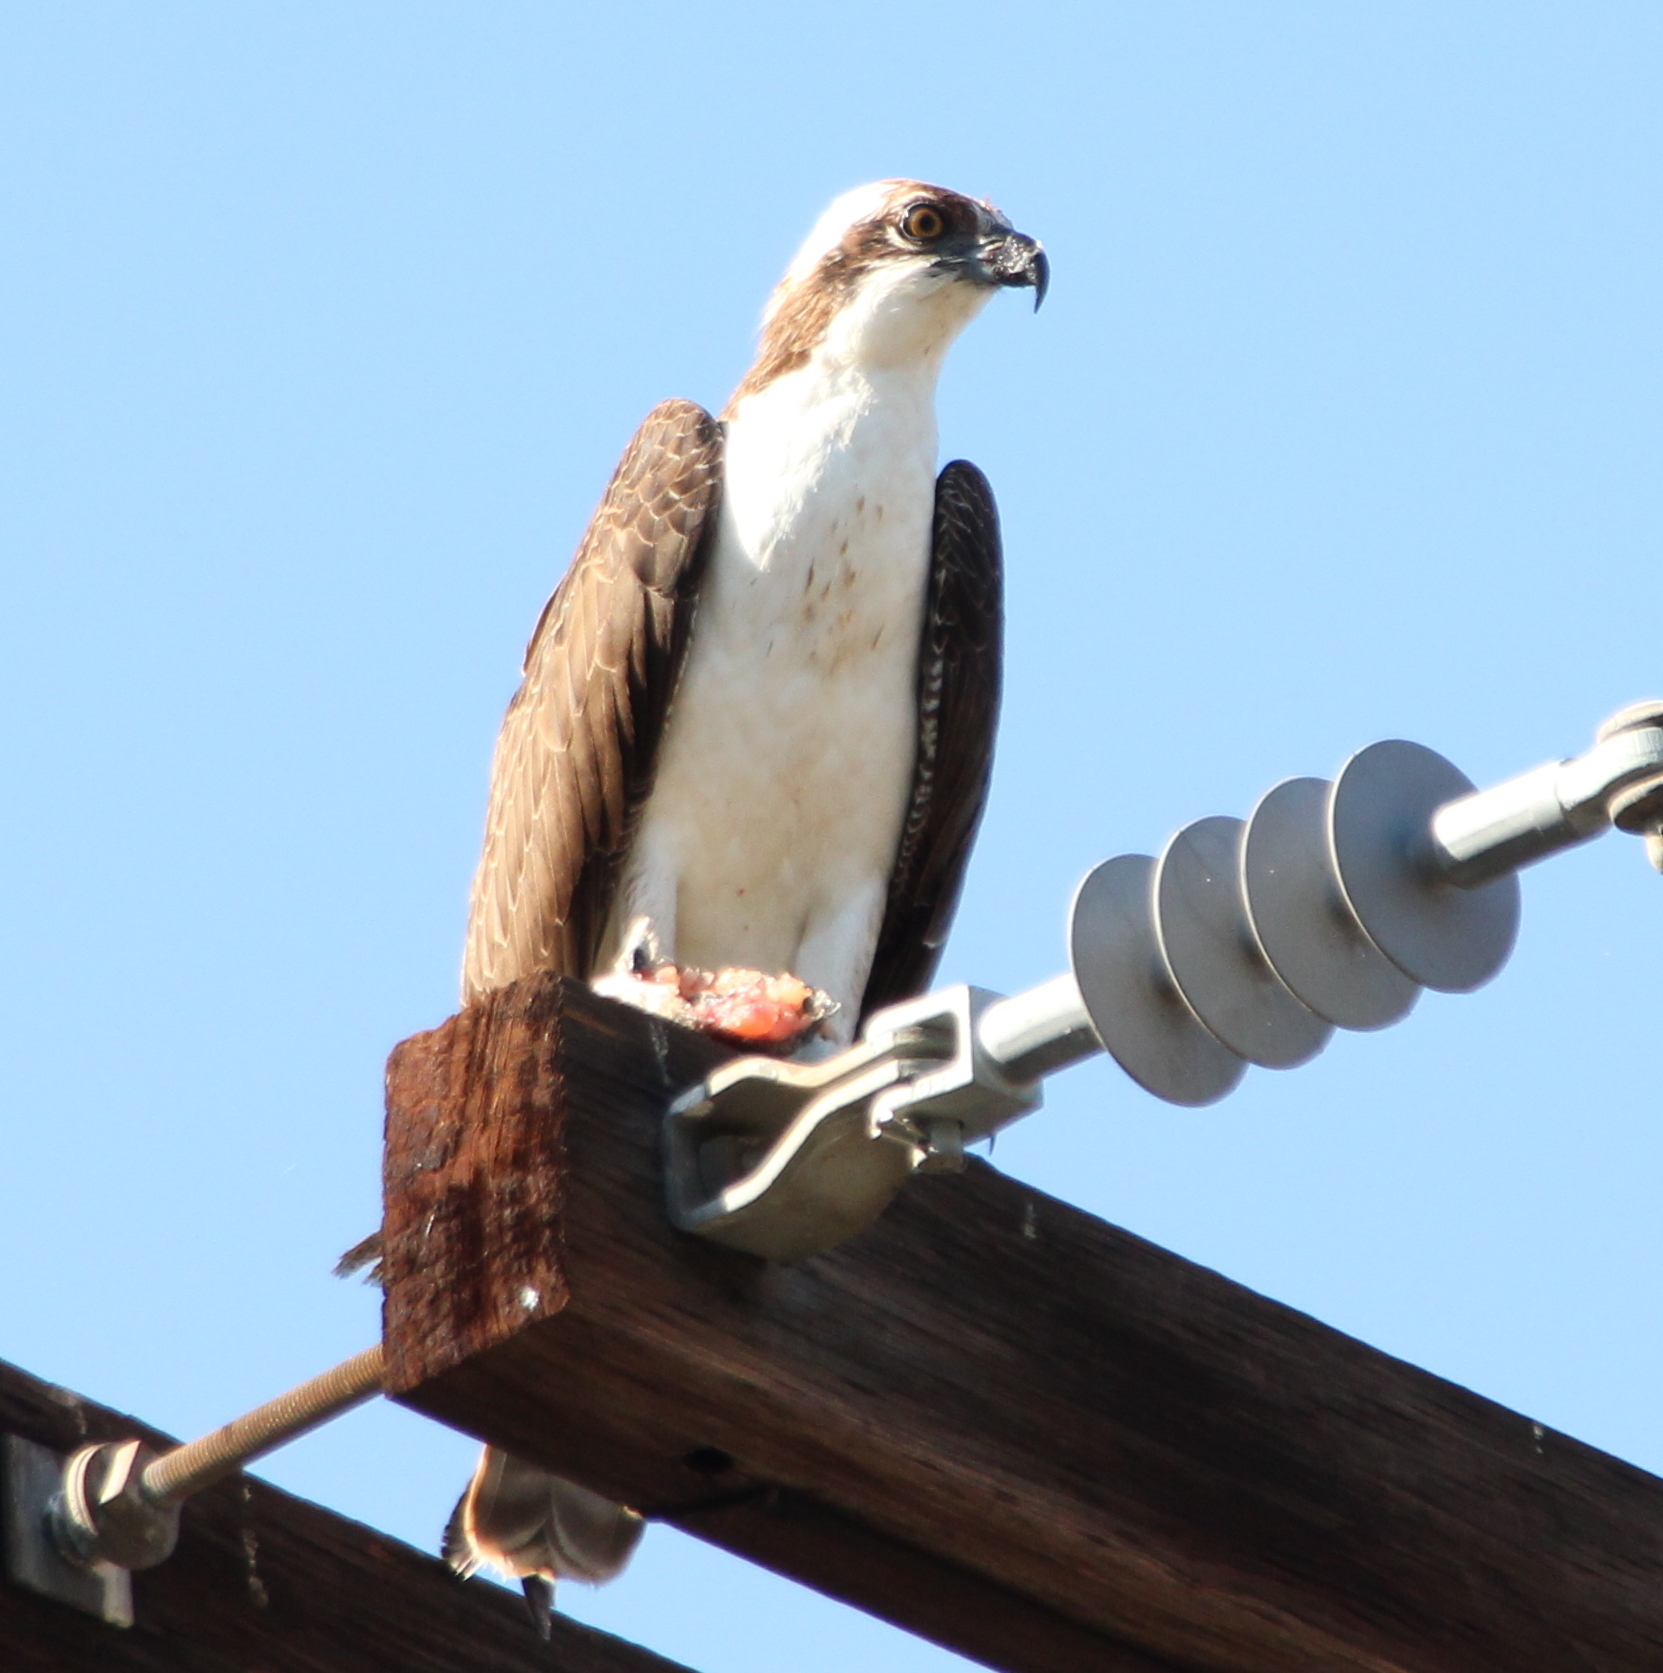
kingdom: Animalia
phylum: Chordata
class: Aves
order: Accipitriformes
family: Pandionidae
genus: Pandion
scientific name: Pandion haliaetus
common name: Osprey
